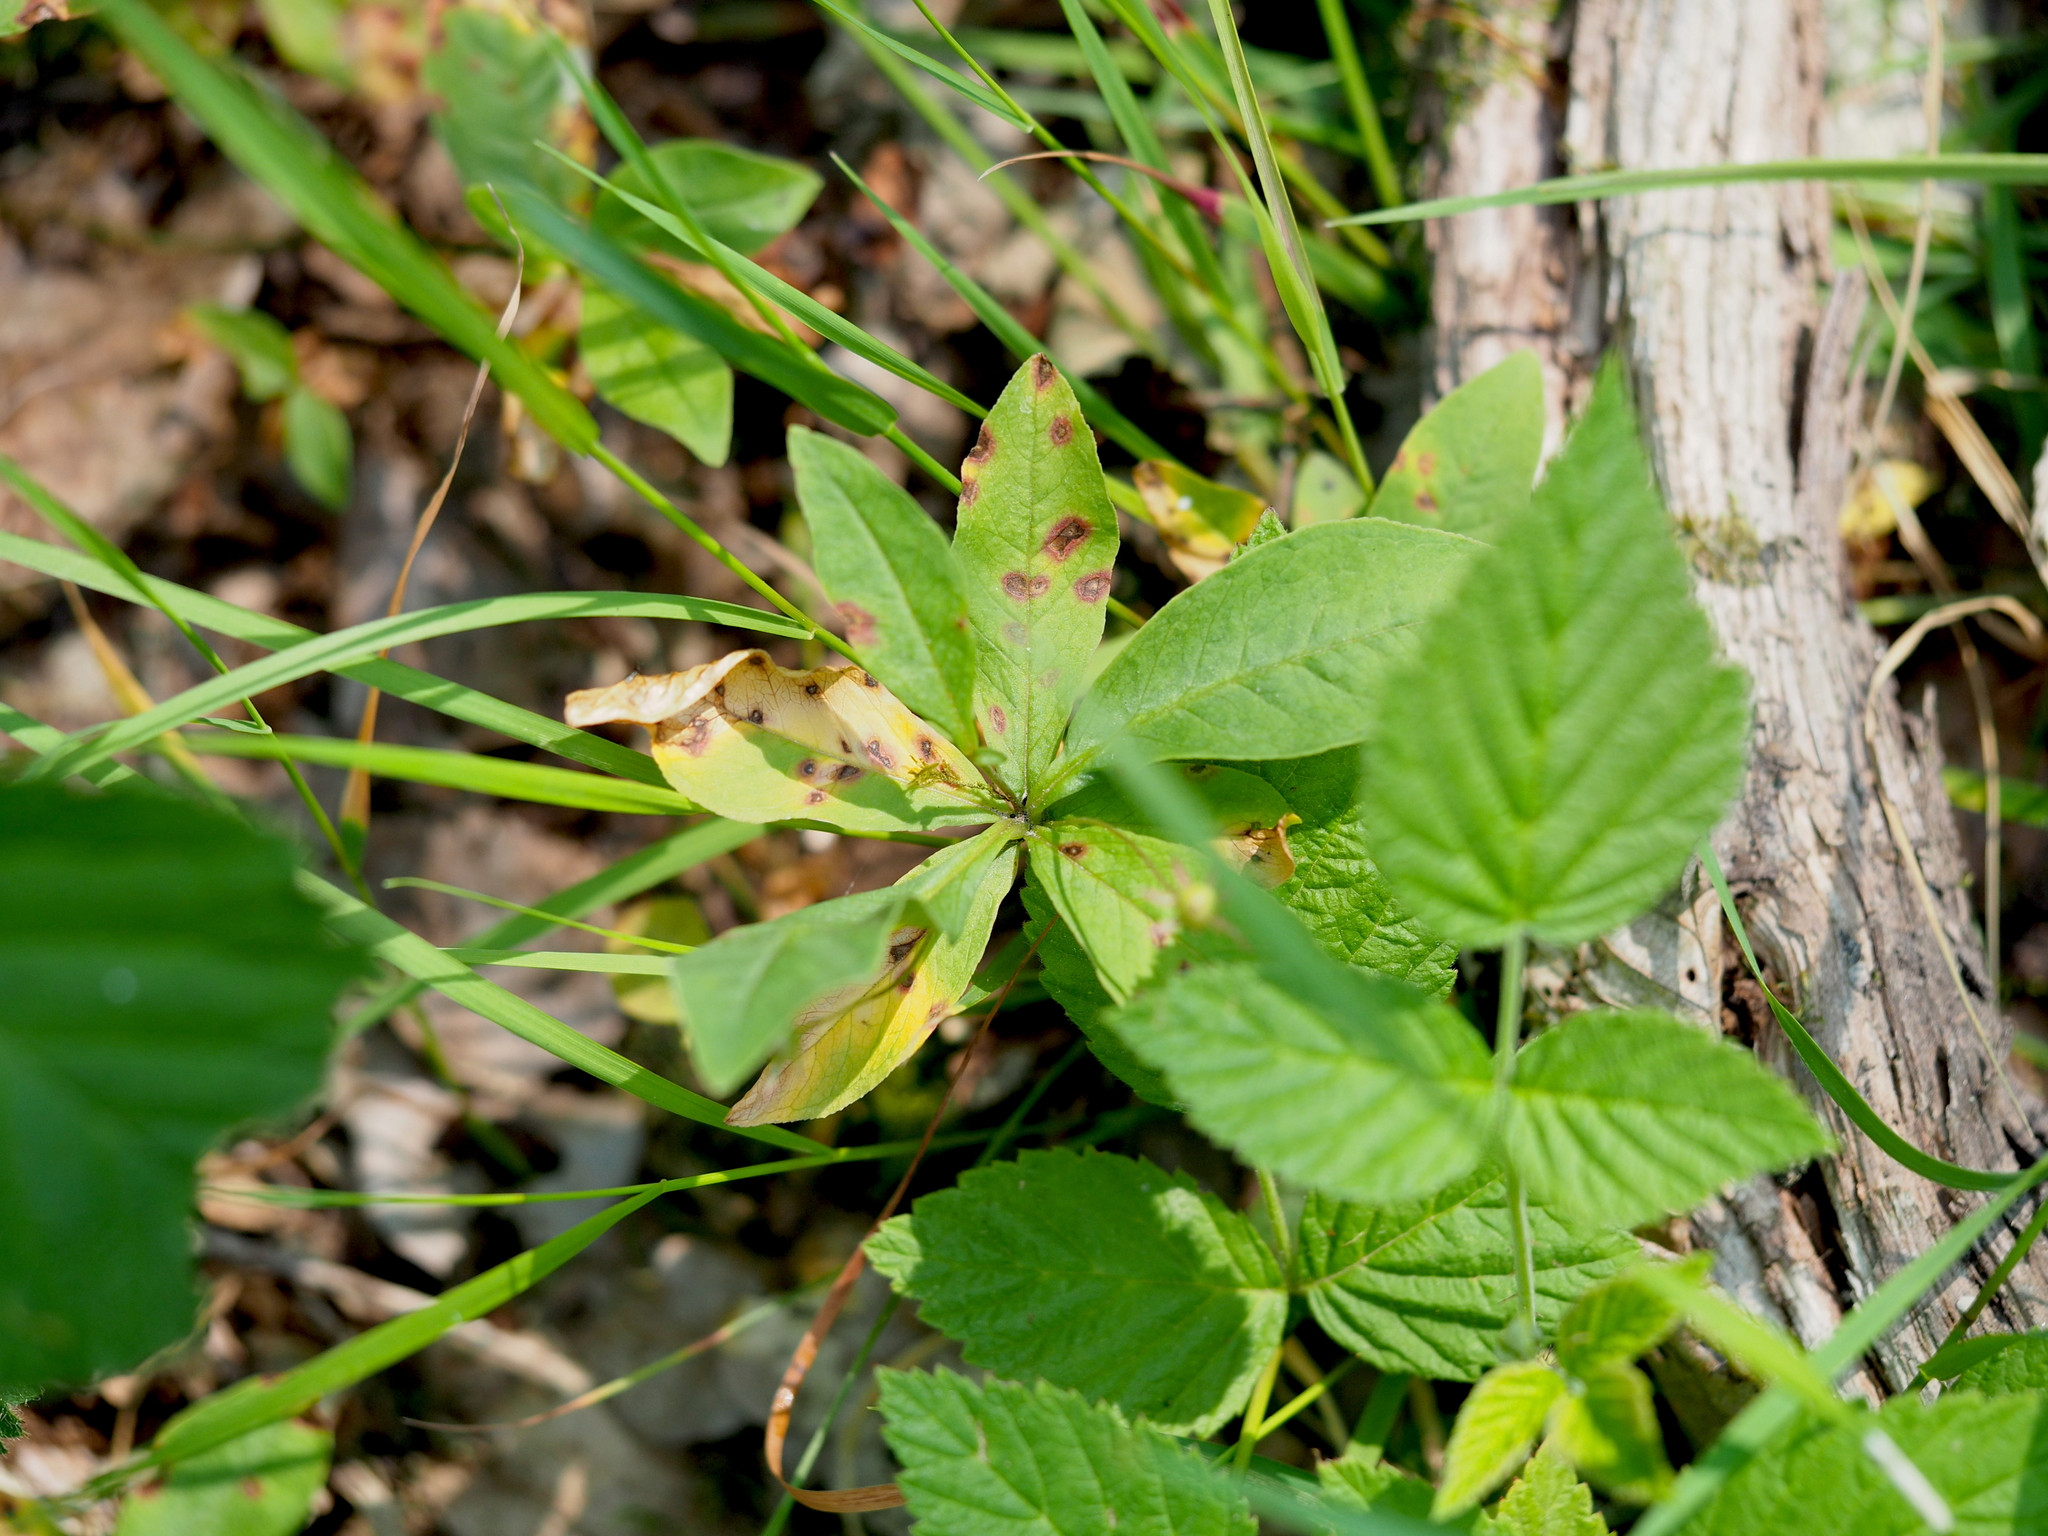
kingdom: Plantae
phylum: Tracheophyta
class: Magnoliopsida
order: Ericales
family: Primulaceae
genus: Lysimachia
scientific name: Lysimachia europaea
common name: Arctic starflower
